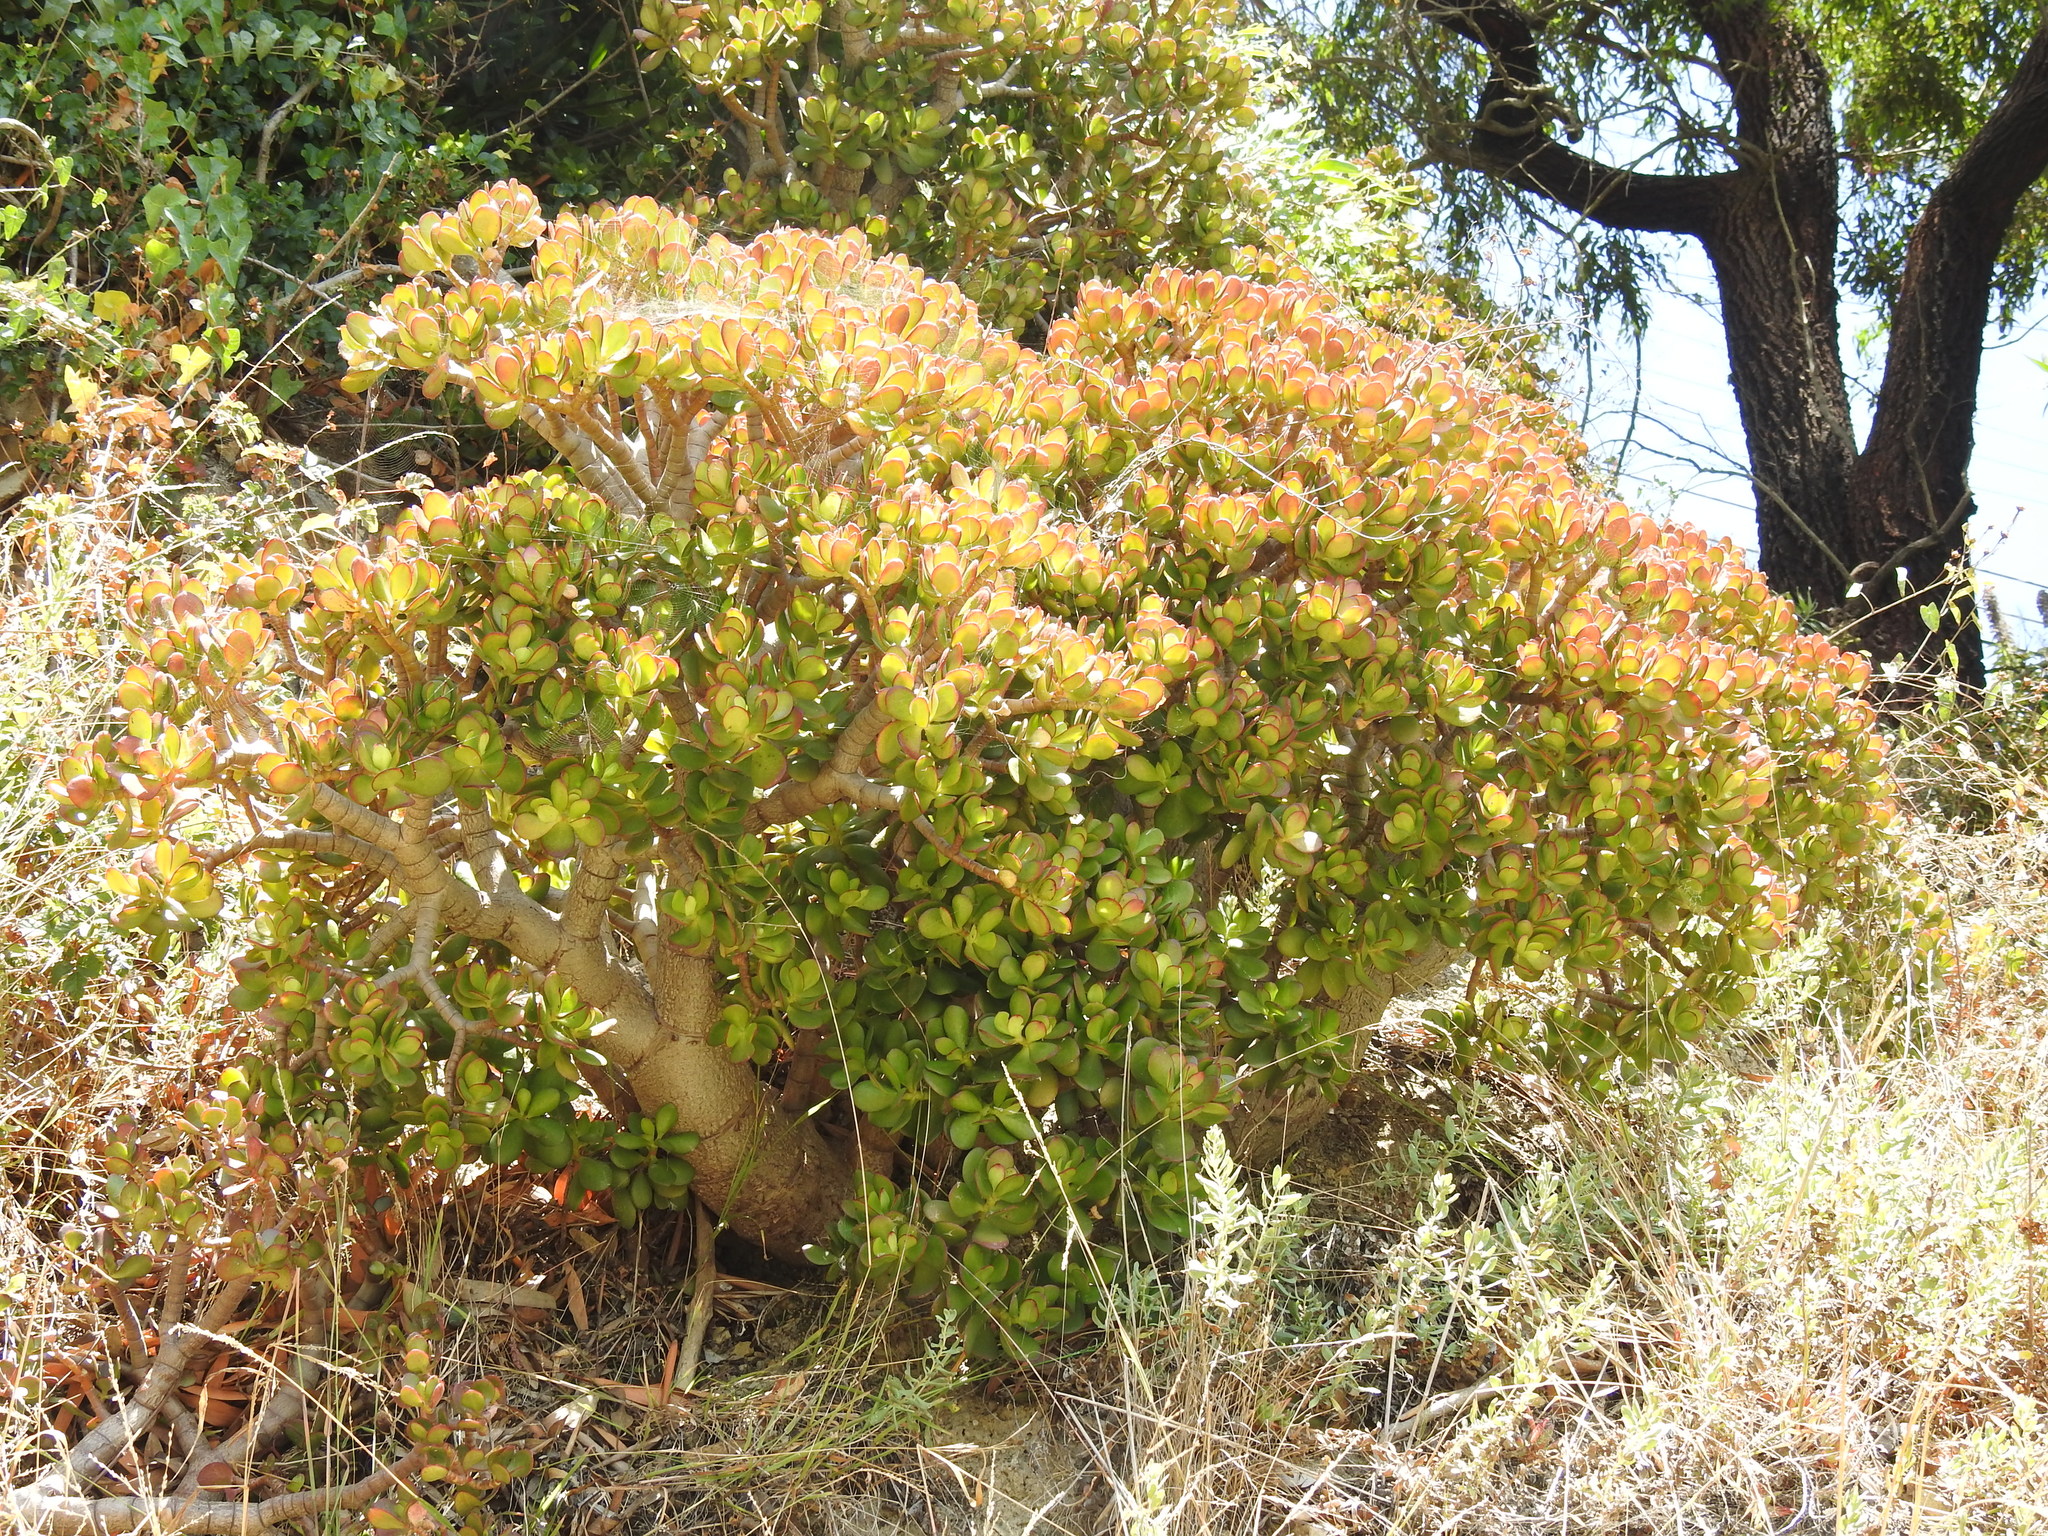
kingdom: Plantae
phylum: Tracheophyta
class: Magnoliopsida
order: Saxifragales
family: Crassulaceae
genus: Crassula
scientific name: Crassula ovata
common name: Jade plant
